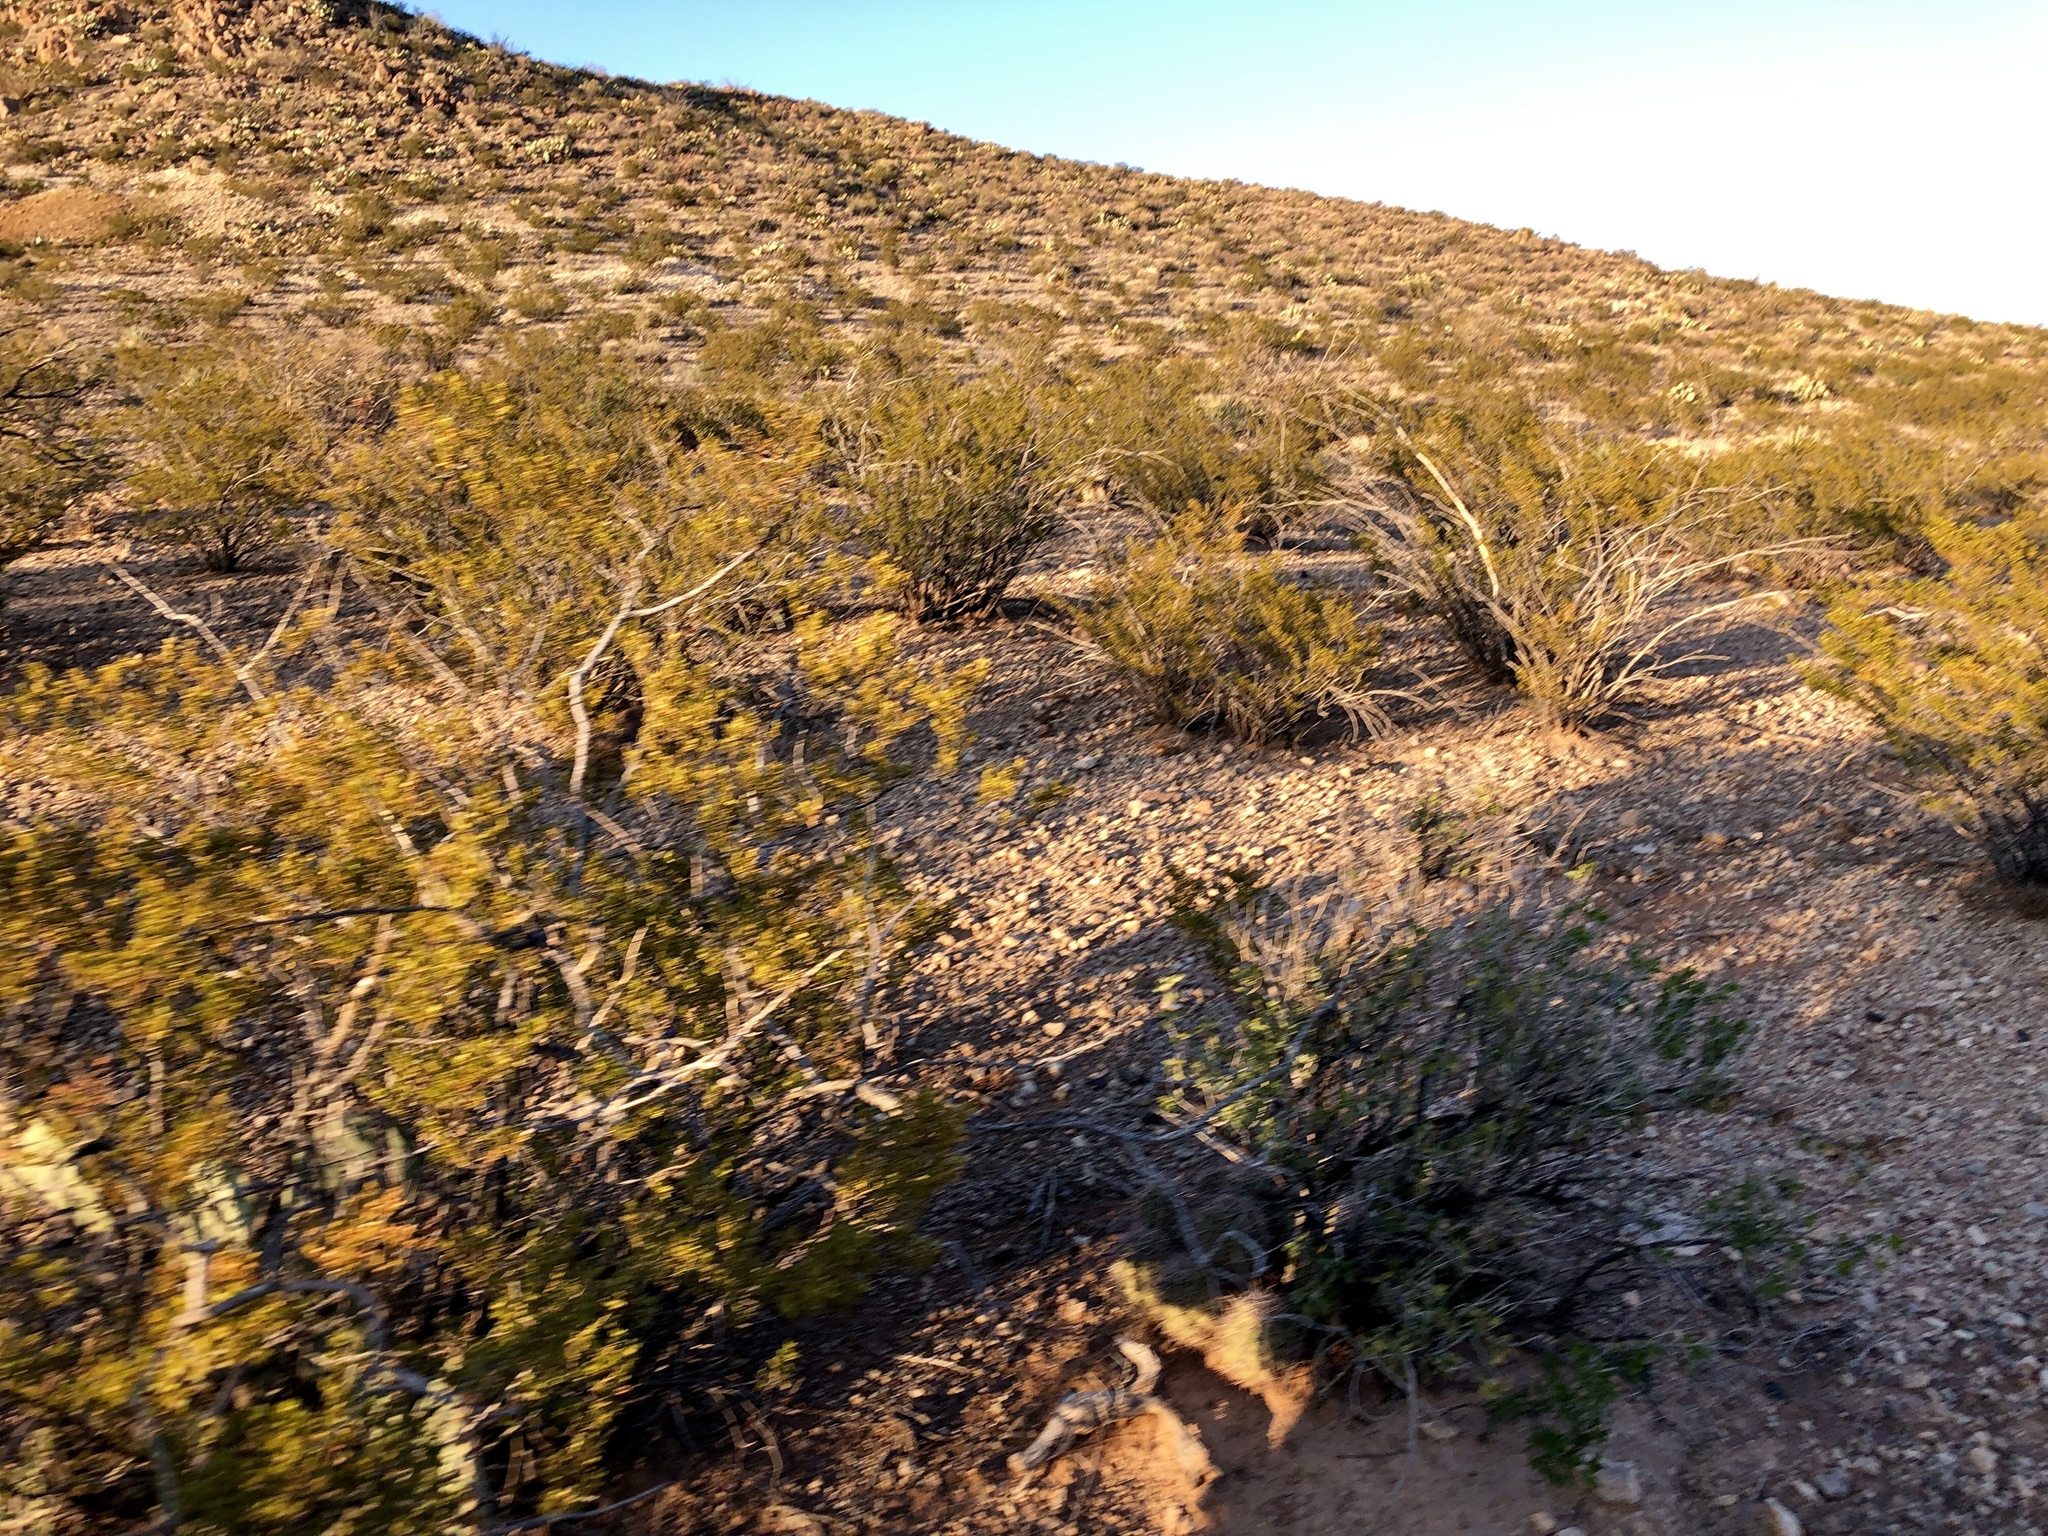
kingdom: Plantae
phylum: Tracheophyta
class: Magnoliopsida
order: Zygophyllales
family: Zygophyllaceae
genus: Larrea
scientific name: Larrea tridentata
